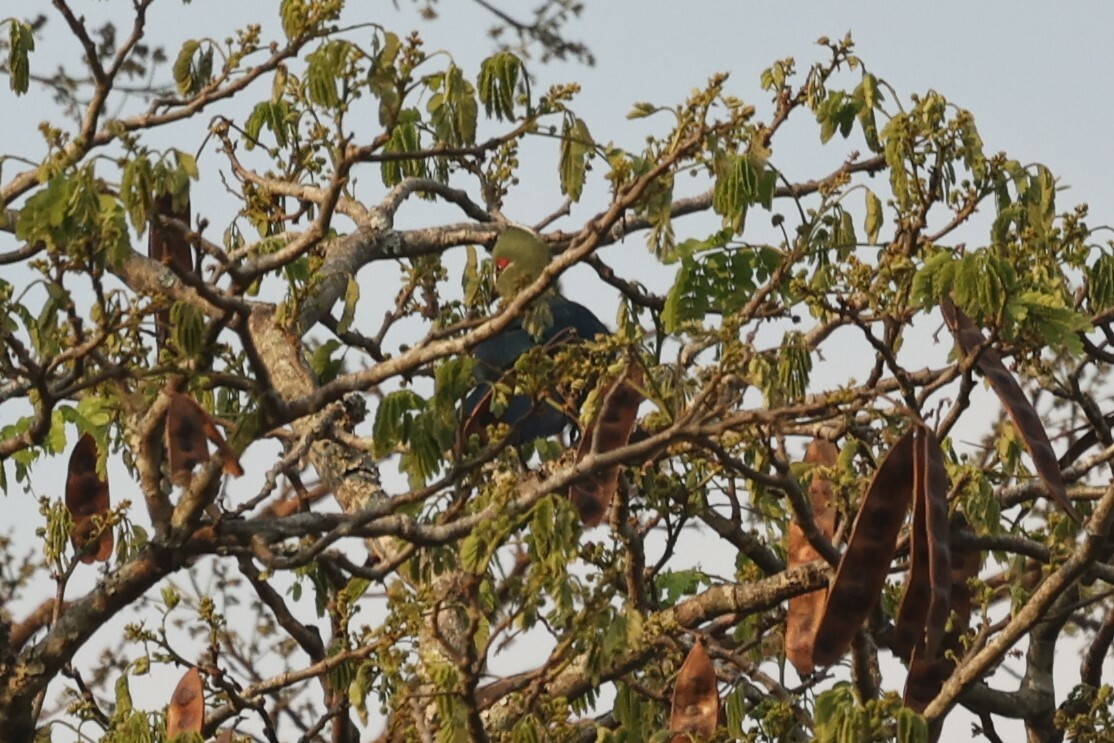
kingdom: Animalia
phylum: Chordata
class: Aves
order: Musophagiformes
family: Musophagidae
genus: Tauraco
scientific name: Tauraco schuettii
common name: Black-billed turaco
